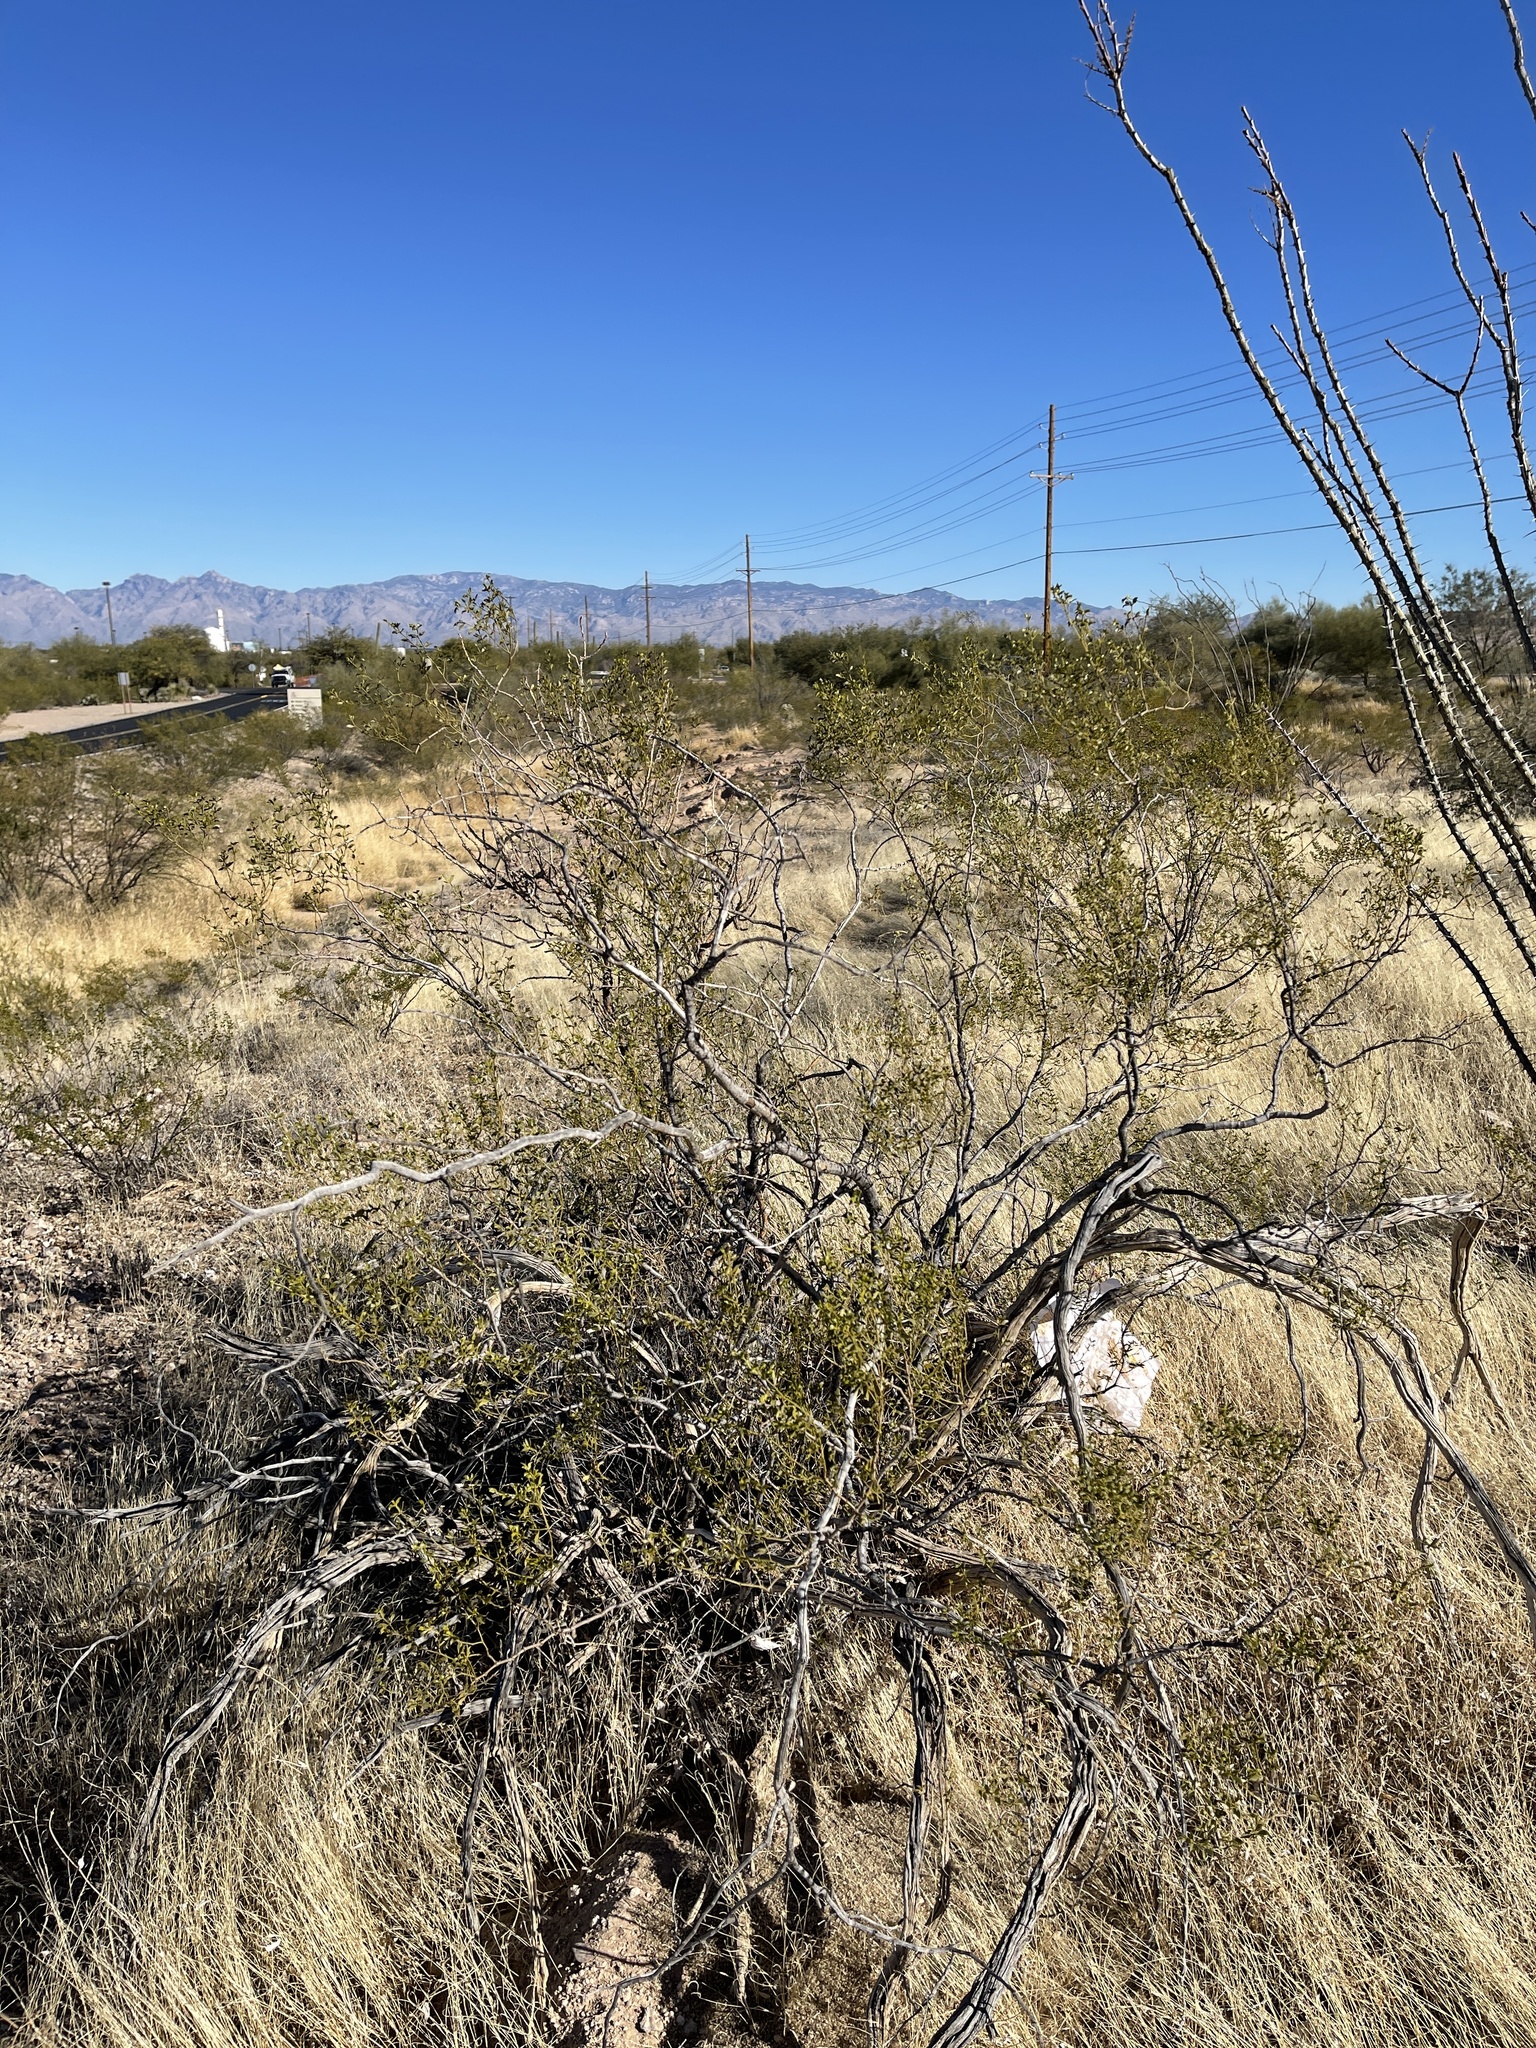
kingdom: Plantae
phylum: Tracheophyta
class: Magnoliopsida
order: Zygophyllales
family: Zygophyllaceae
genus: Larrea
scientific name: Larrea tridentata
